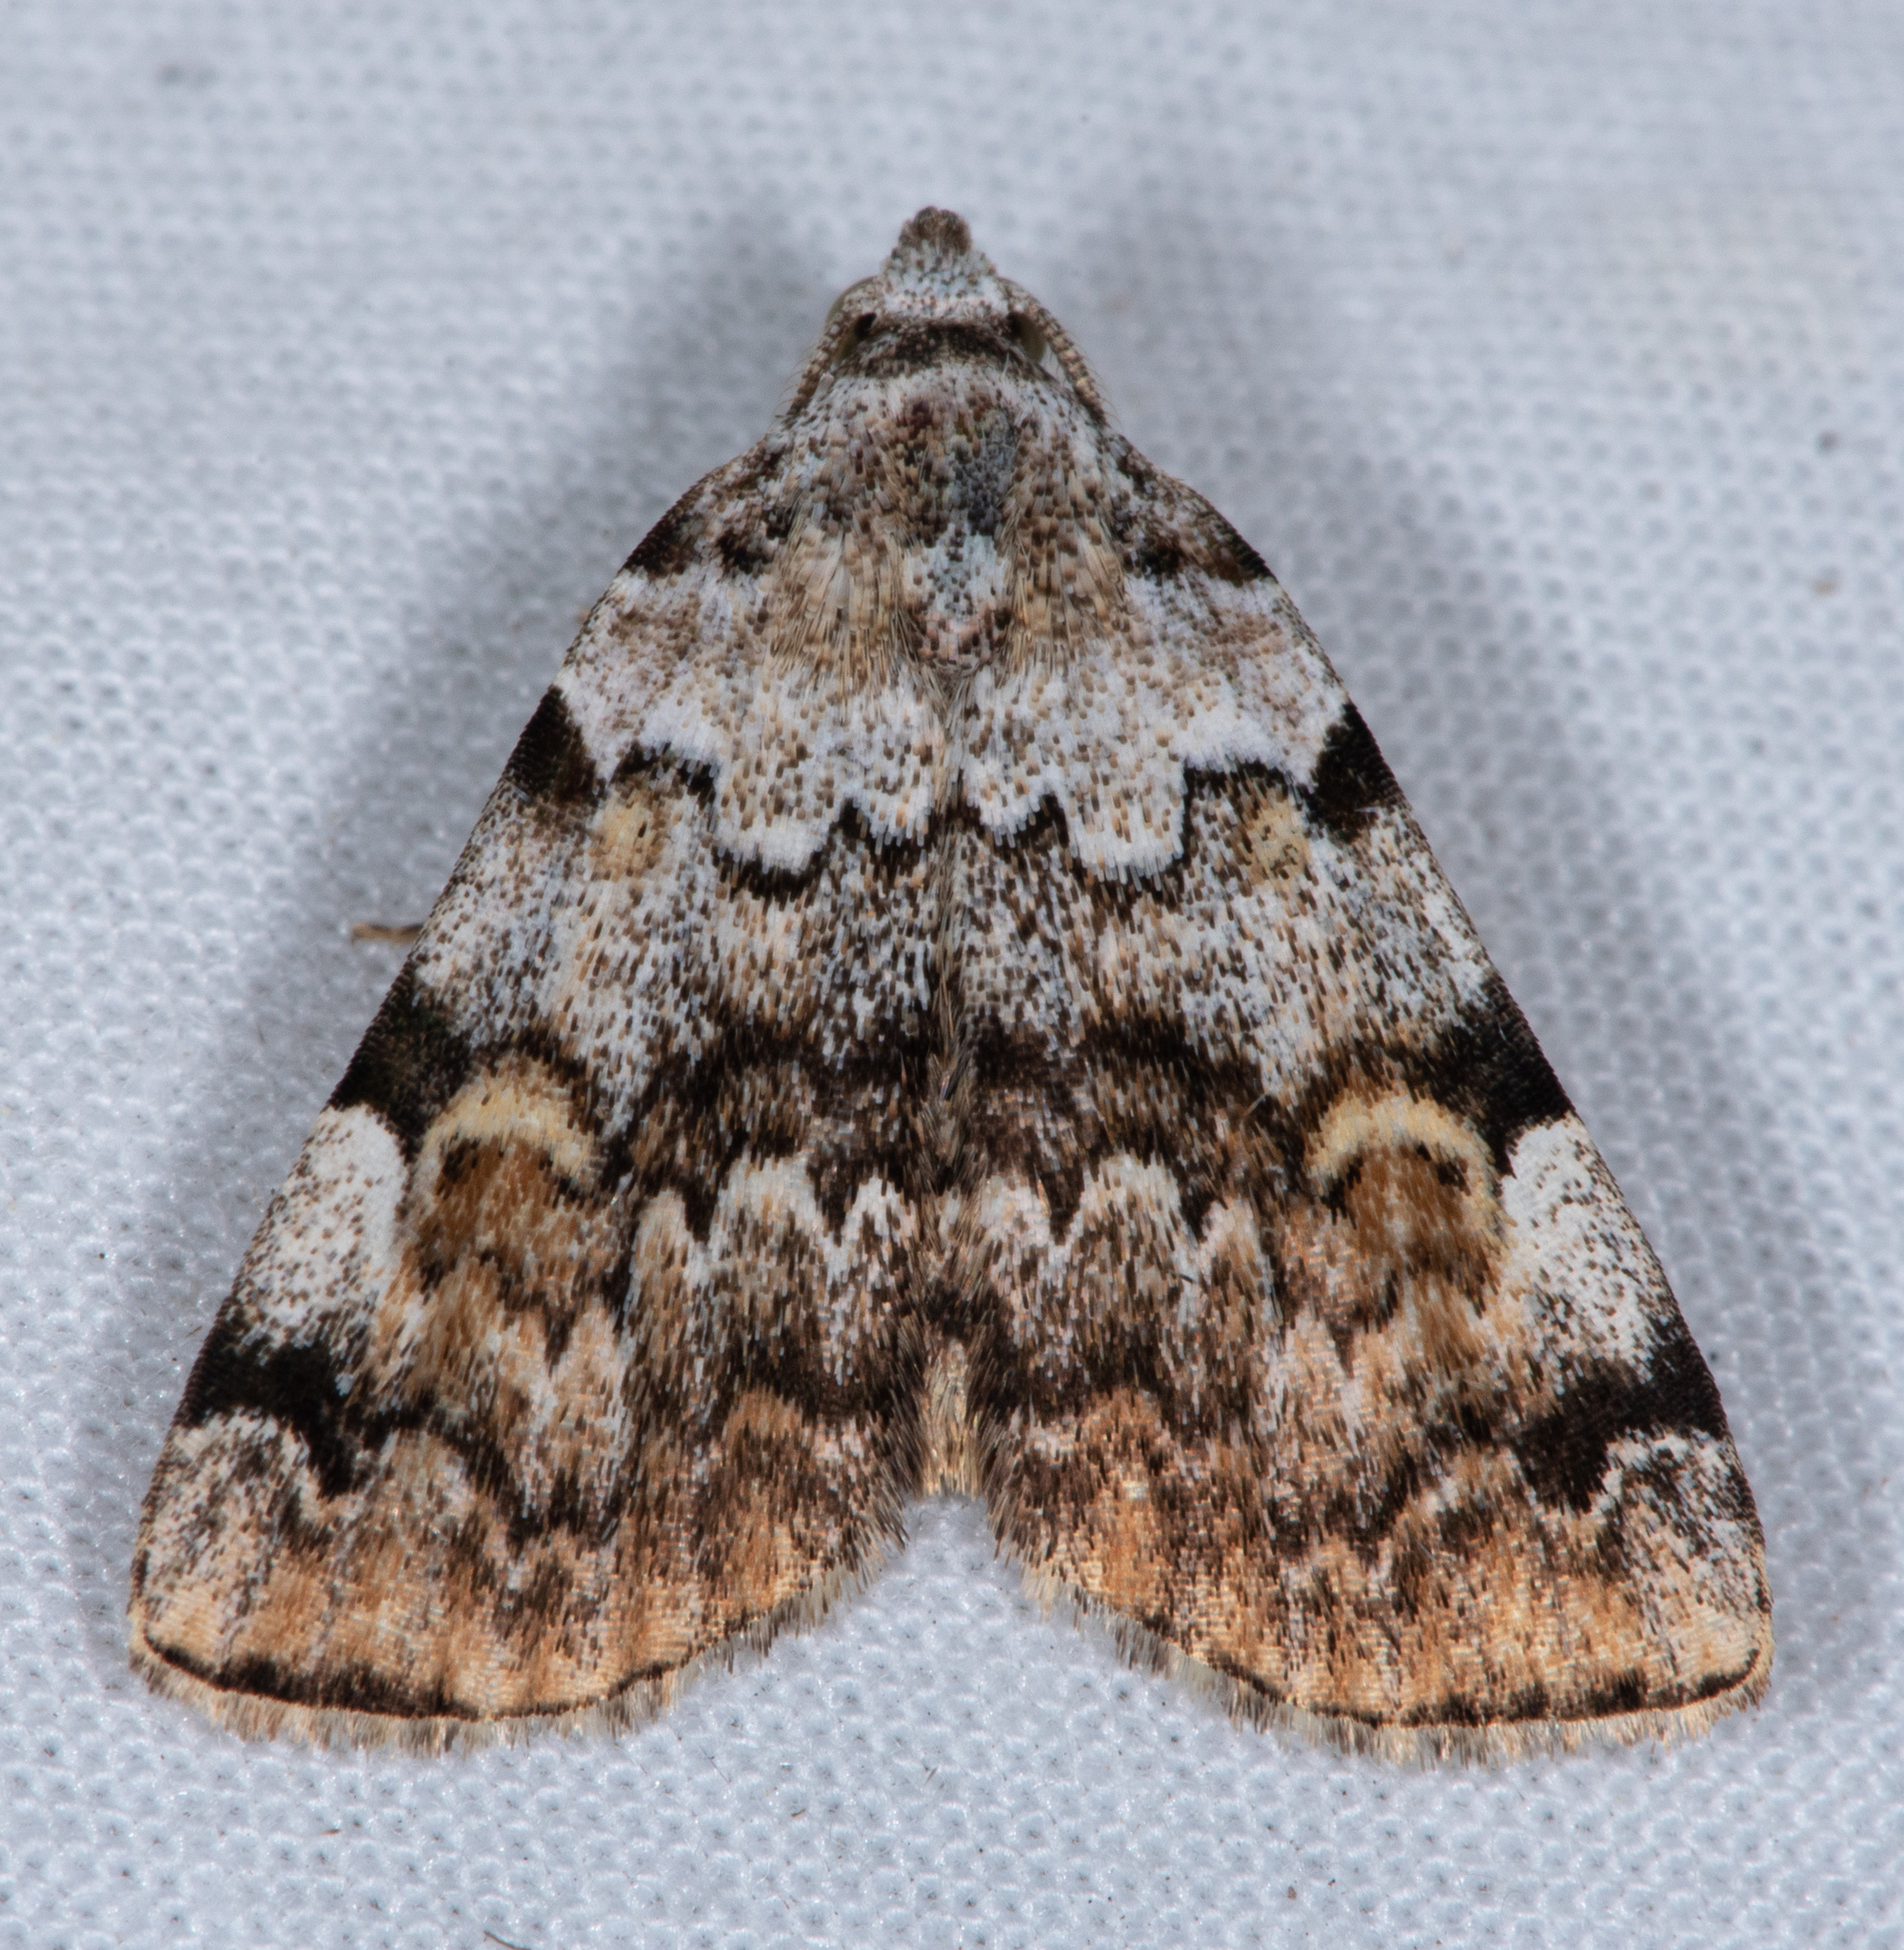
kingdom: Animalia
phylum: Arthropoda
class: Insecta
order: Lepidoptera
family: Erebidae
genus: Idia
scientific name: Idia americalis
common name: American idia moth
